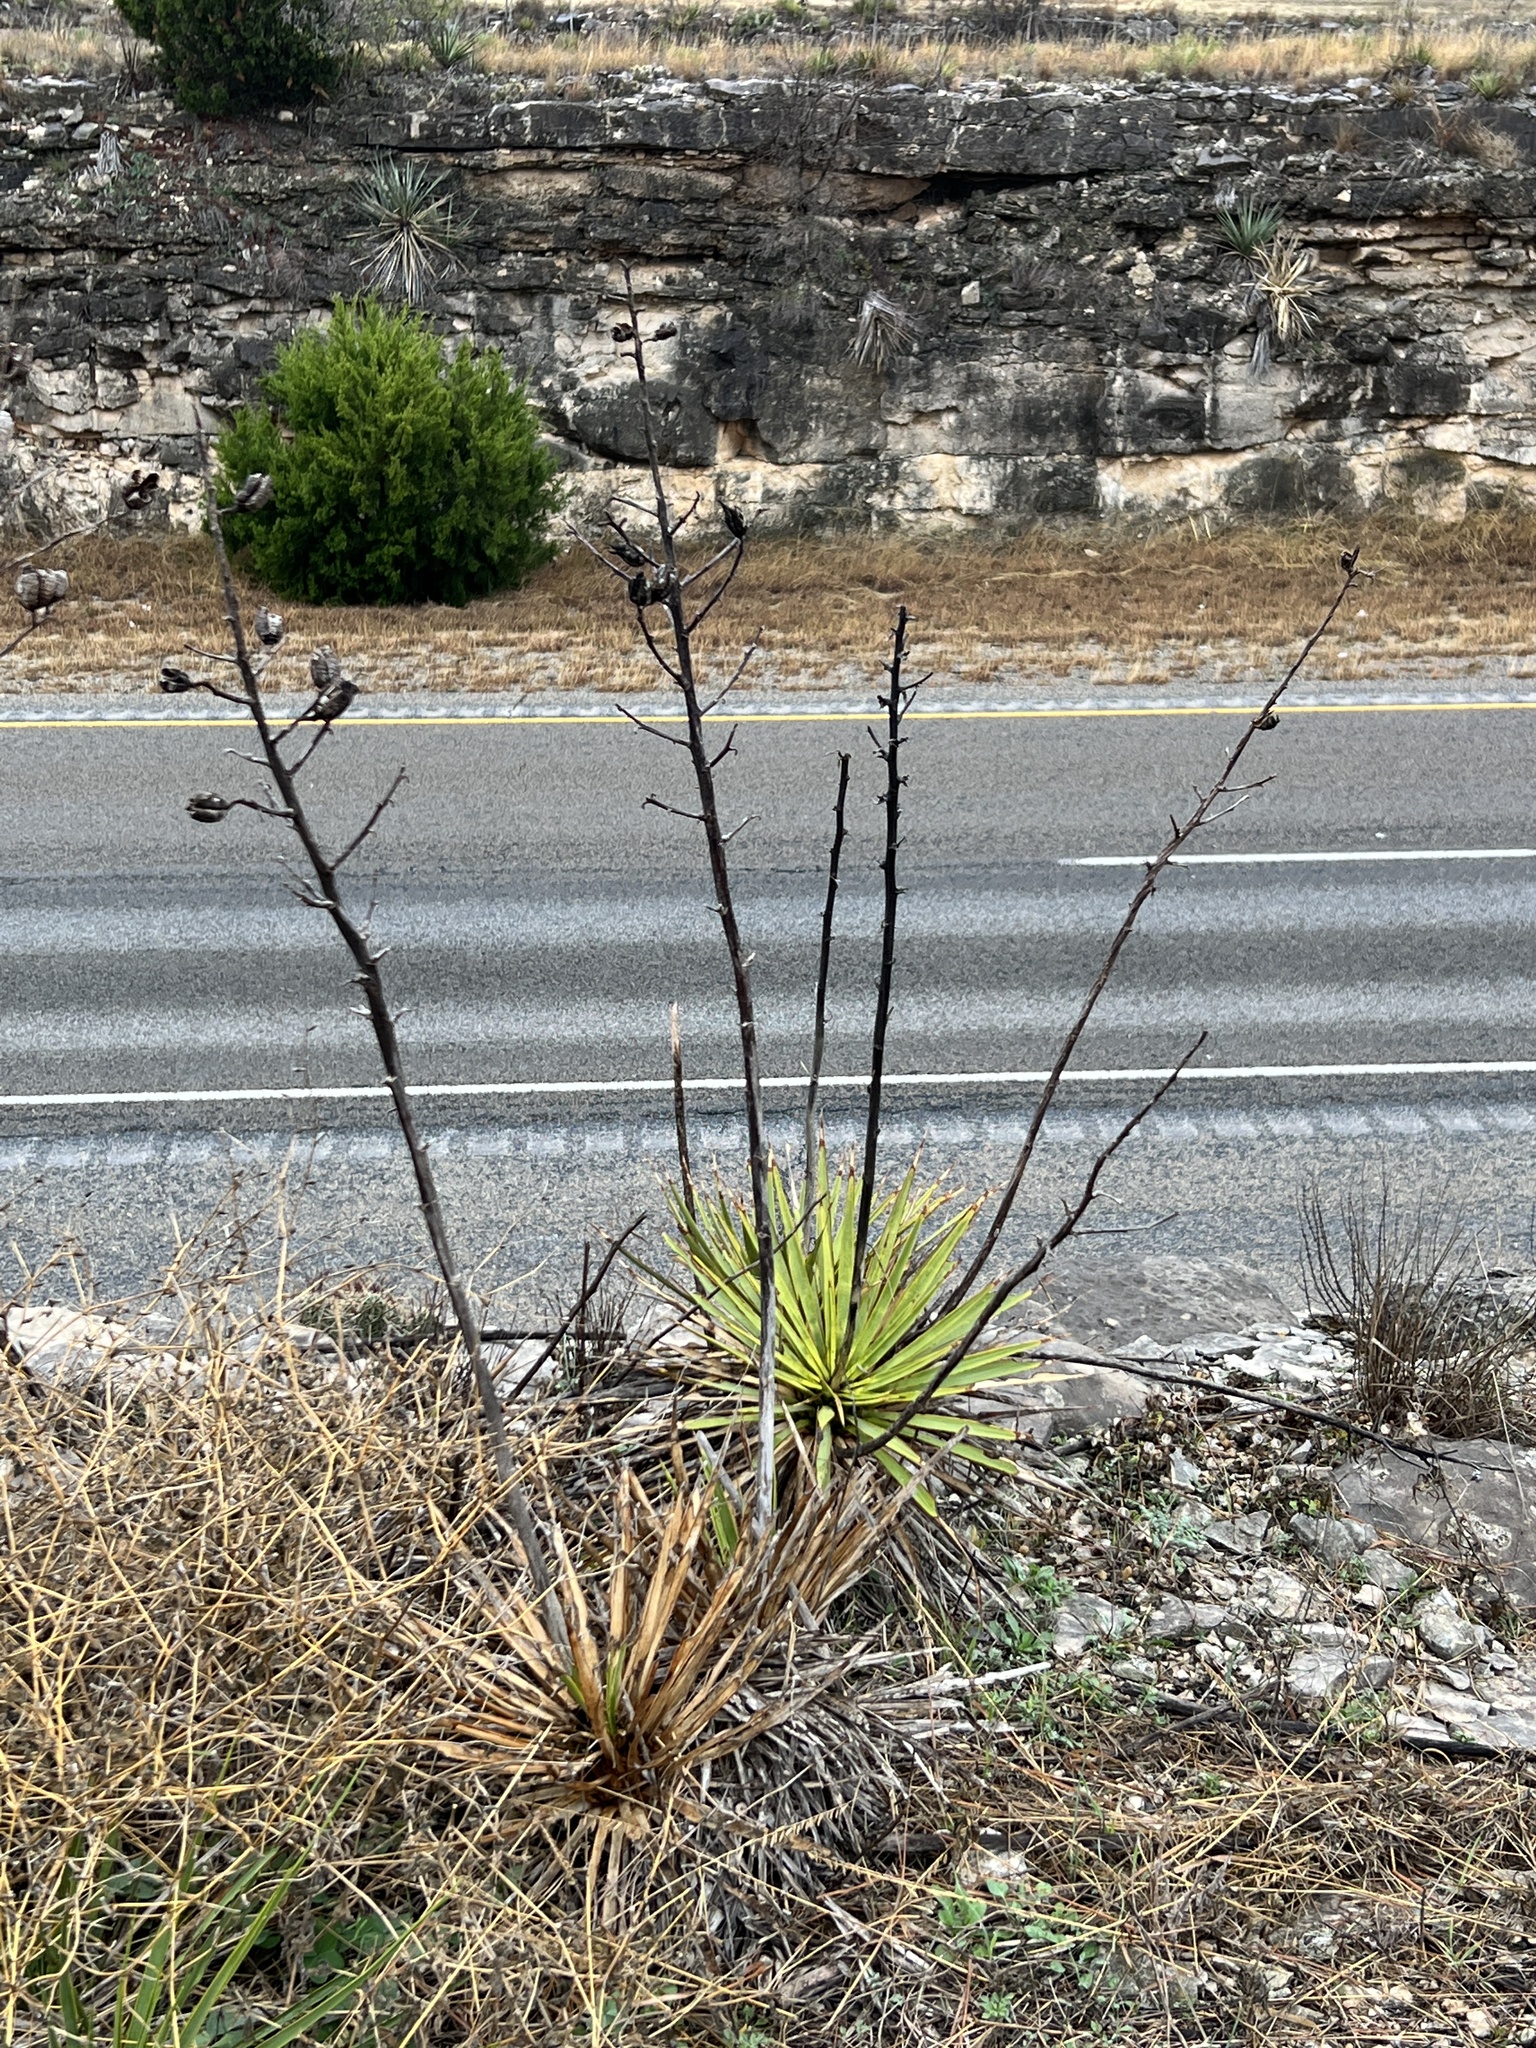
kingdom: Plantae
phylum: Tracheophyta
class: Liliopsida
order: Asparagales
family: Asparagaceae
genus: Yucca
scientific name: Yucca reverchonii
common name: San angelo yucca
